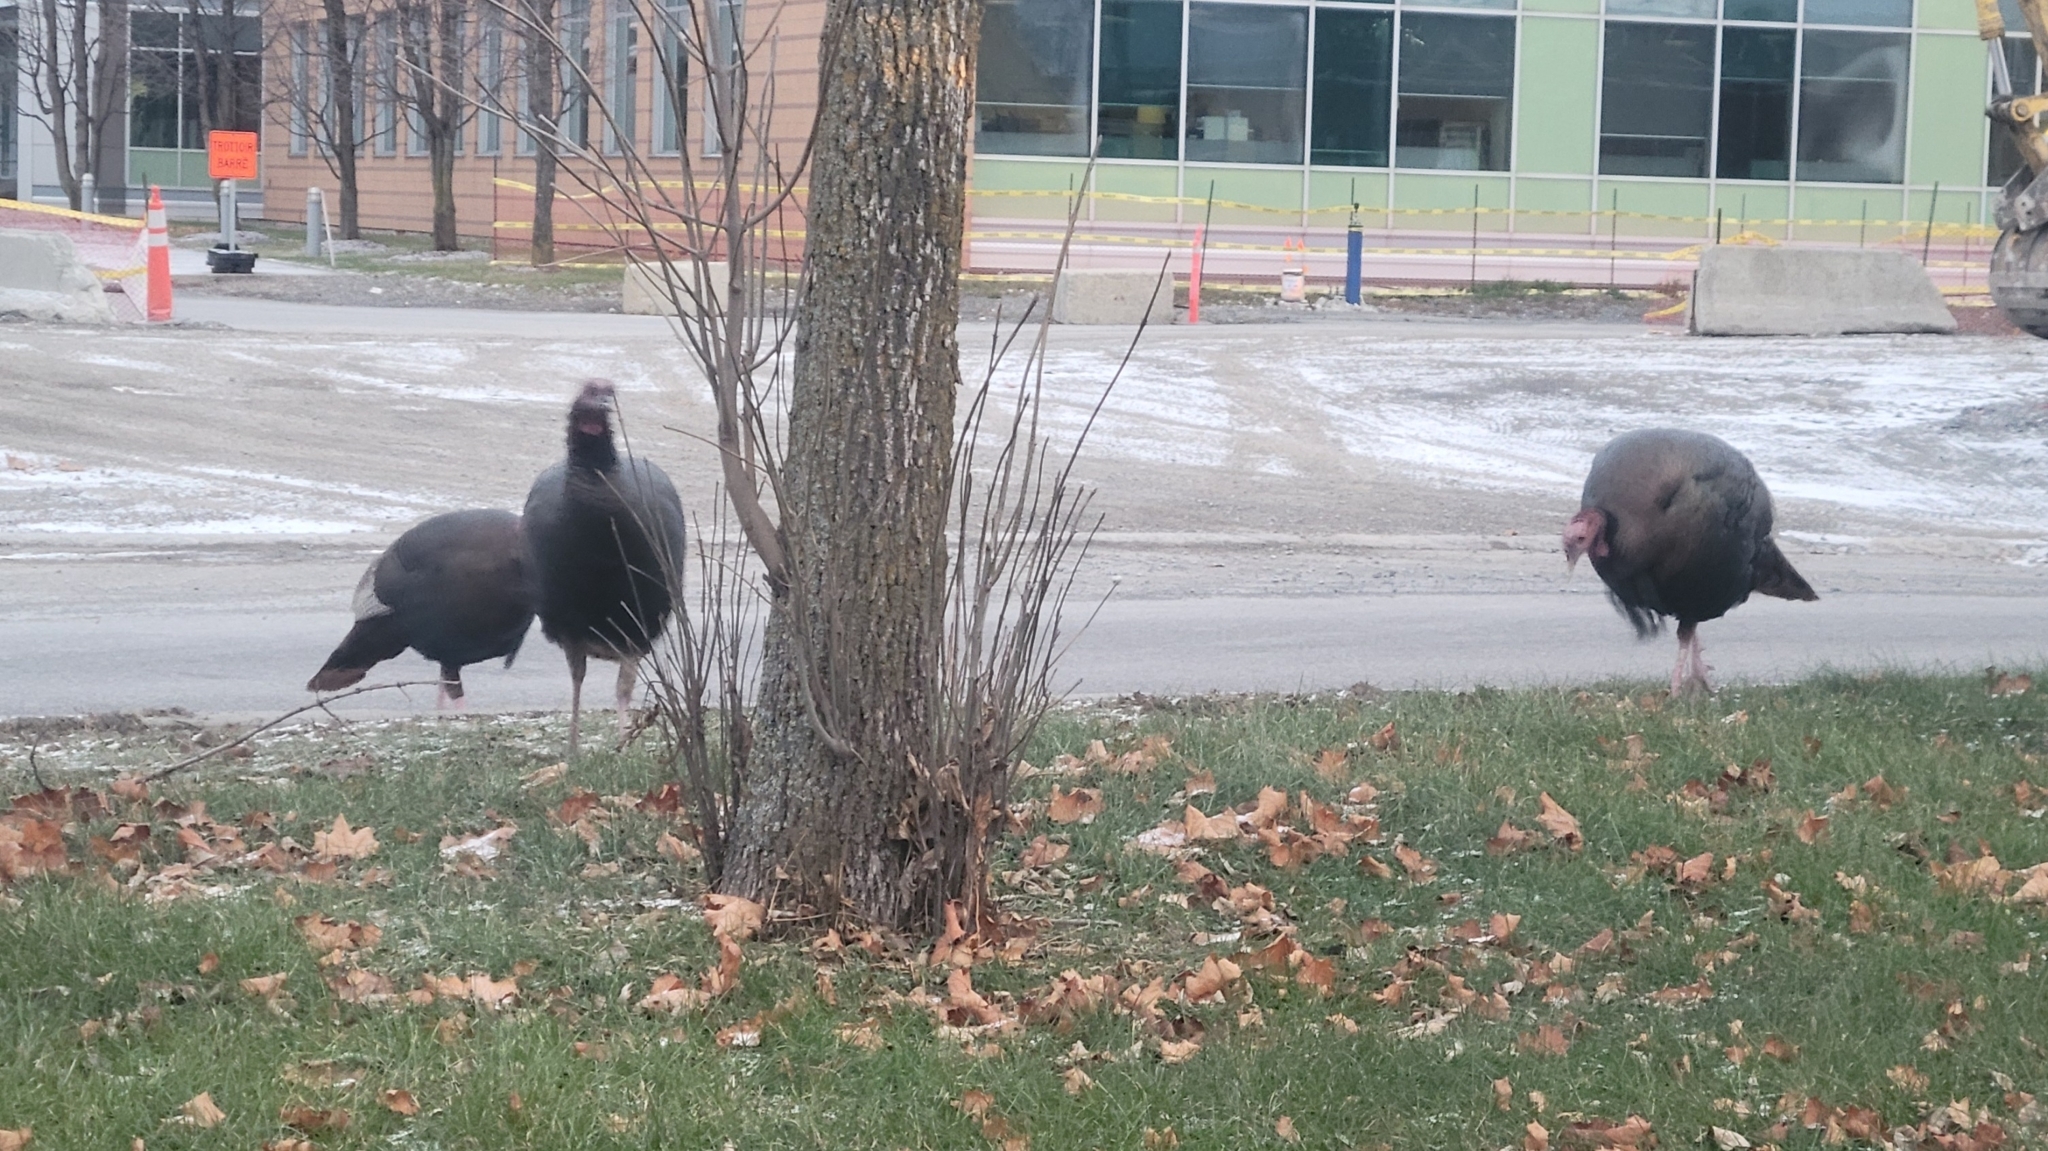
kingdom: Animalia
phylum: Chordata
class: Aves
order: Galliformes
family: Phasianidae
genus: Meleagris
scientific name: Meleagris gallopavo
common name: Wild turkey
